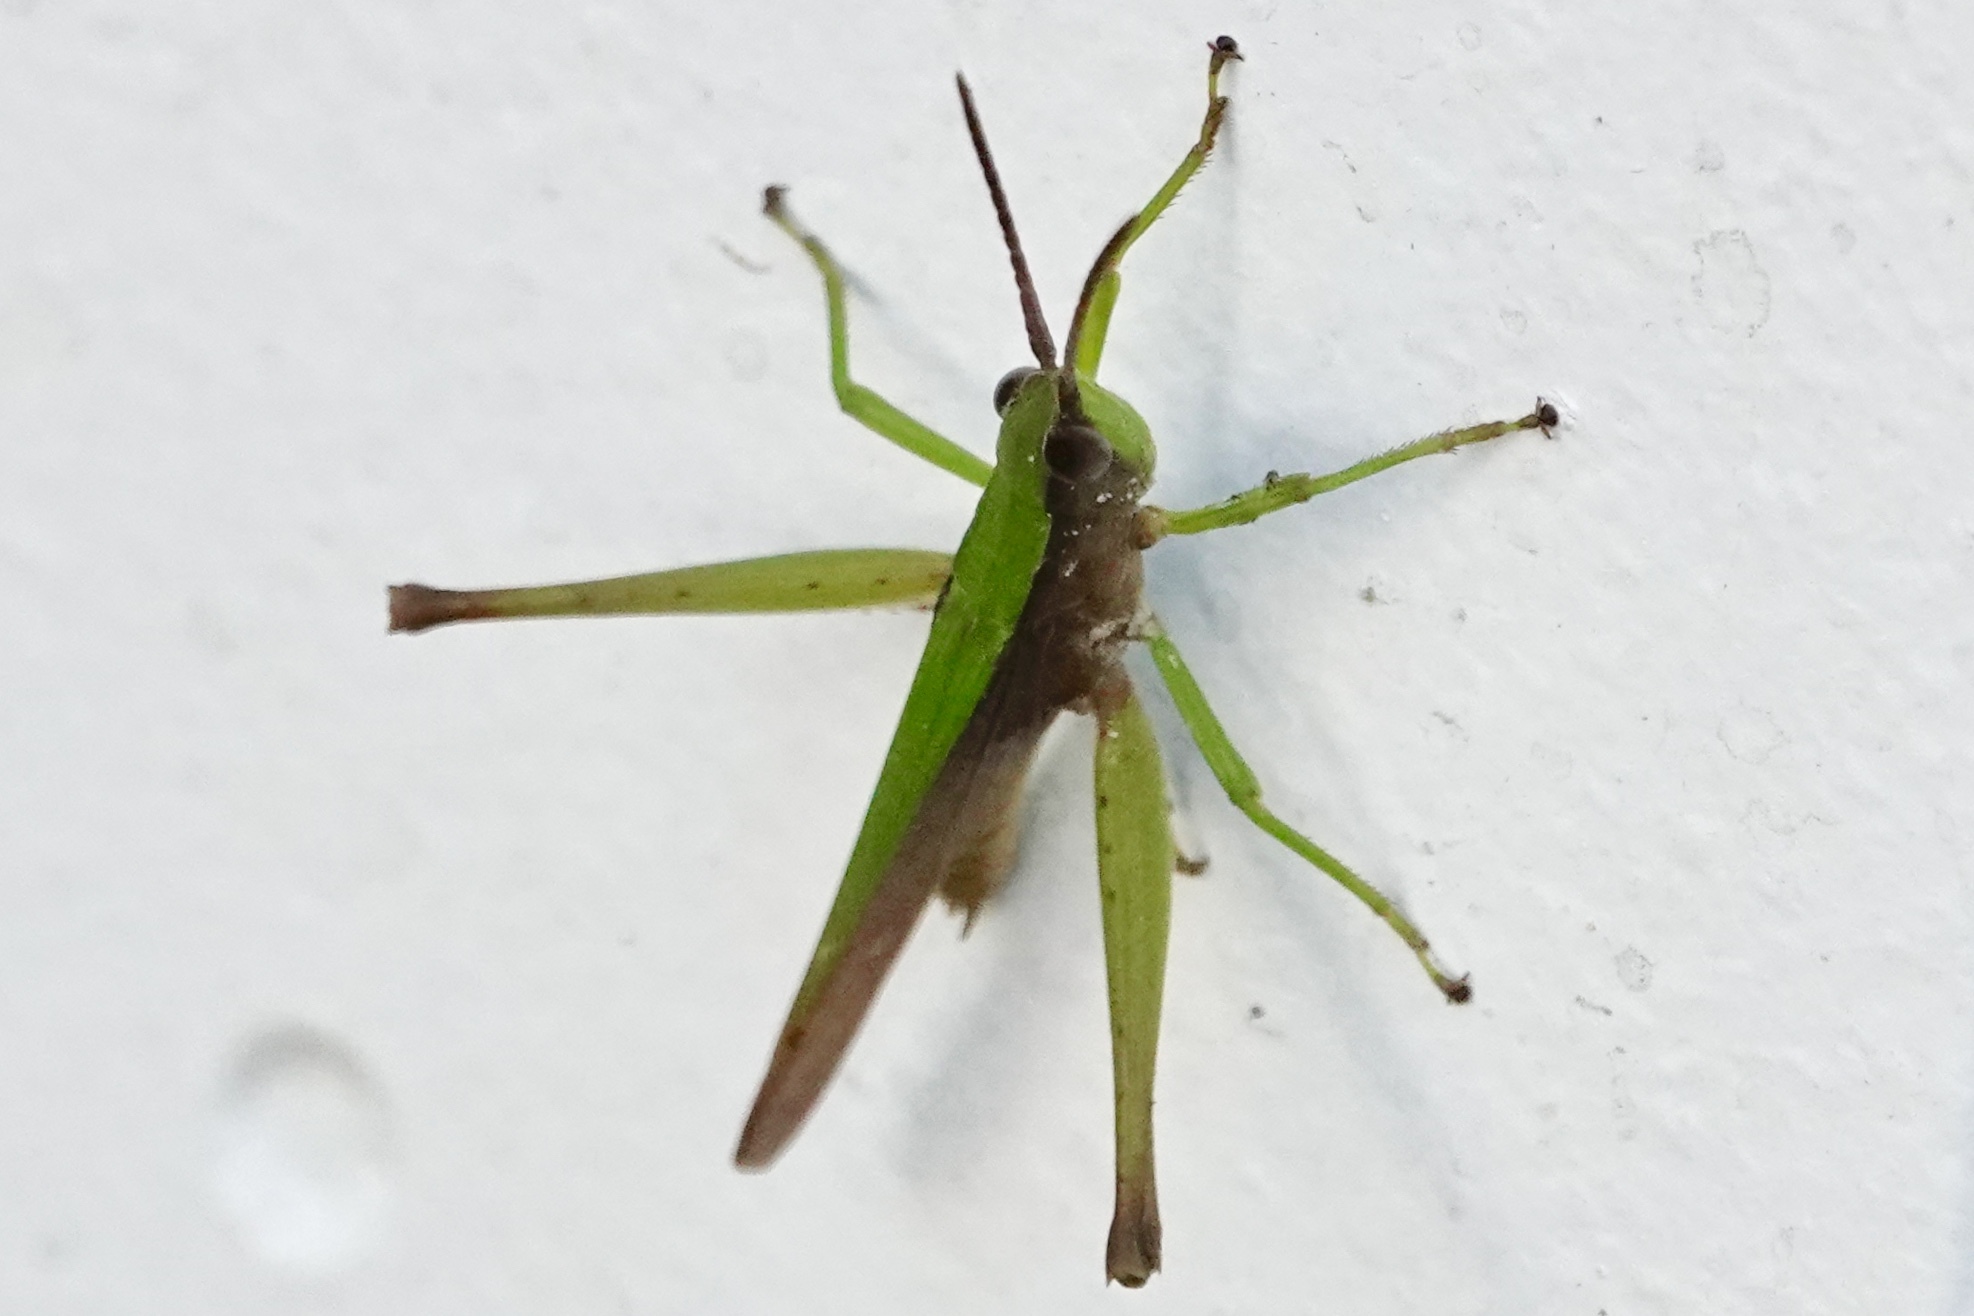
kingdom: Animalia
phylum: Arthropoda
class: Insecta
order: Orthoptera
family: Acrididae
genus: Metaleptea
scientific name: Metaleptea brevicornis
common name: Clipped-wing grasshopper
